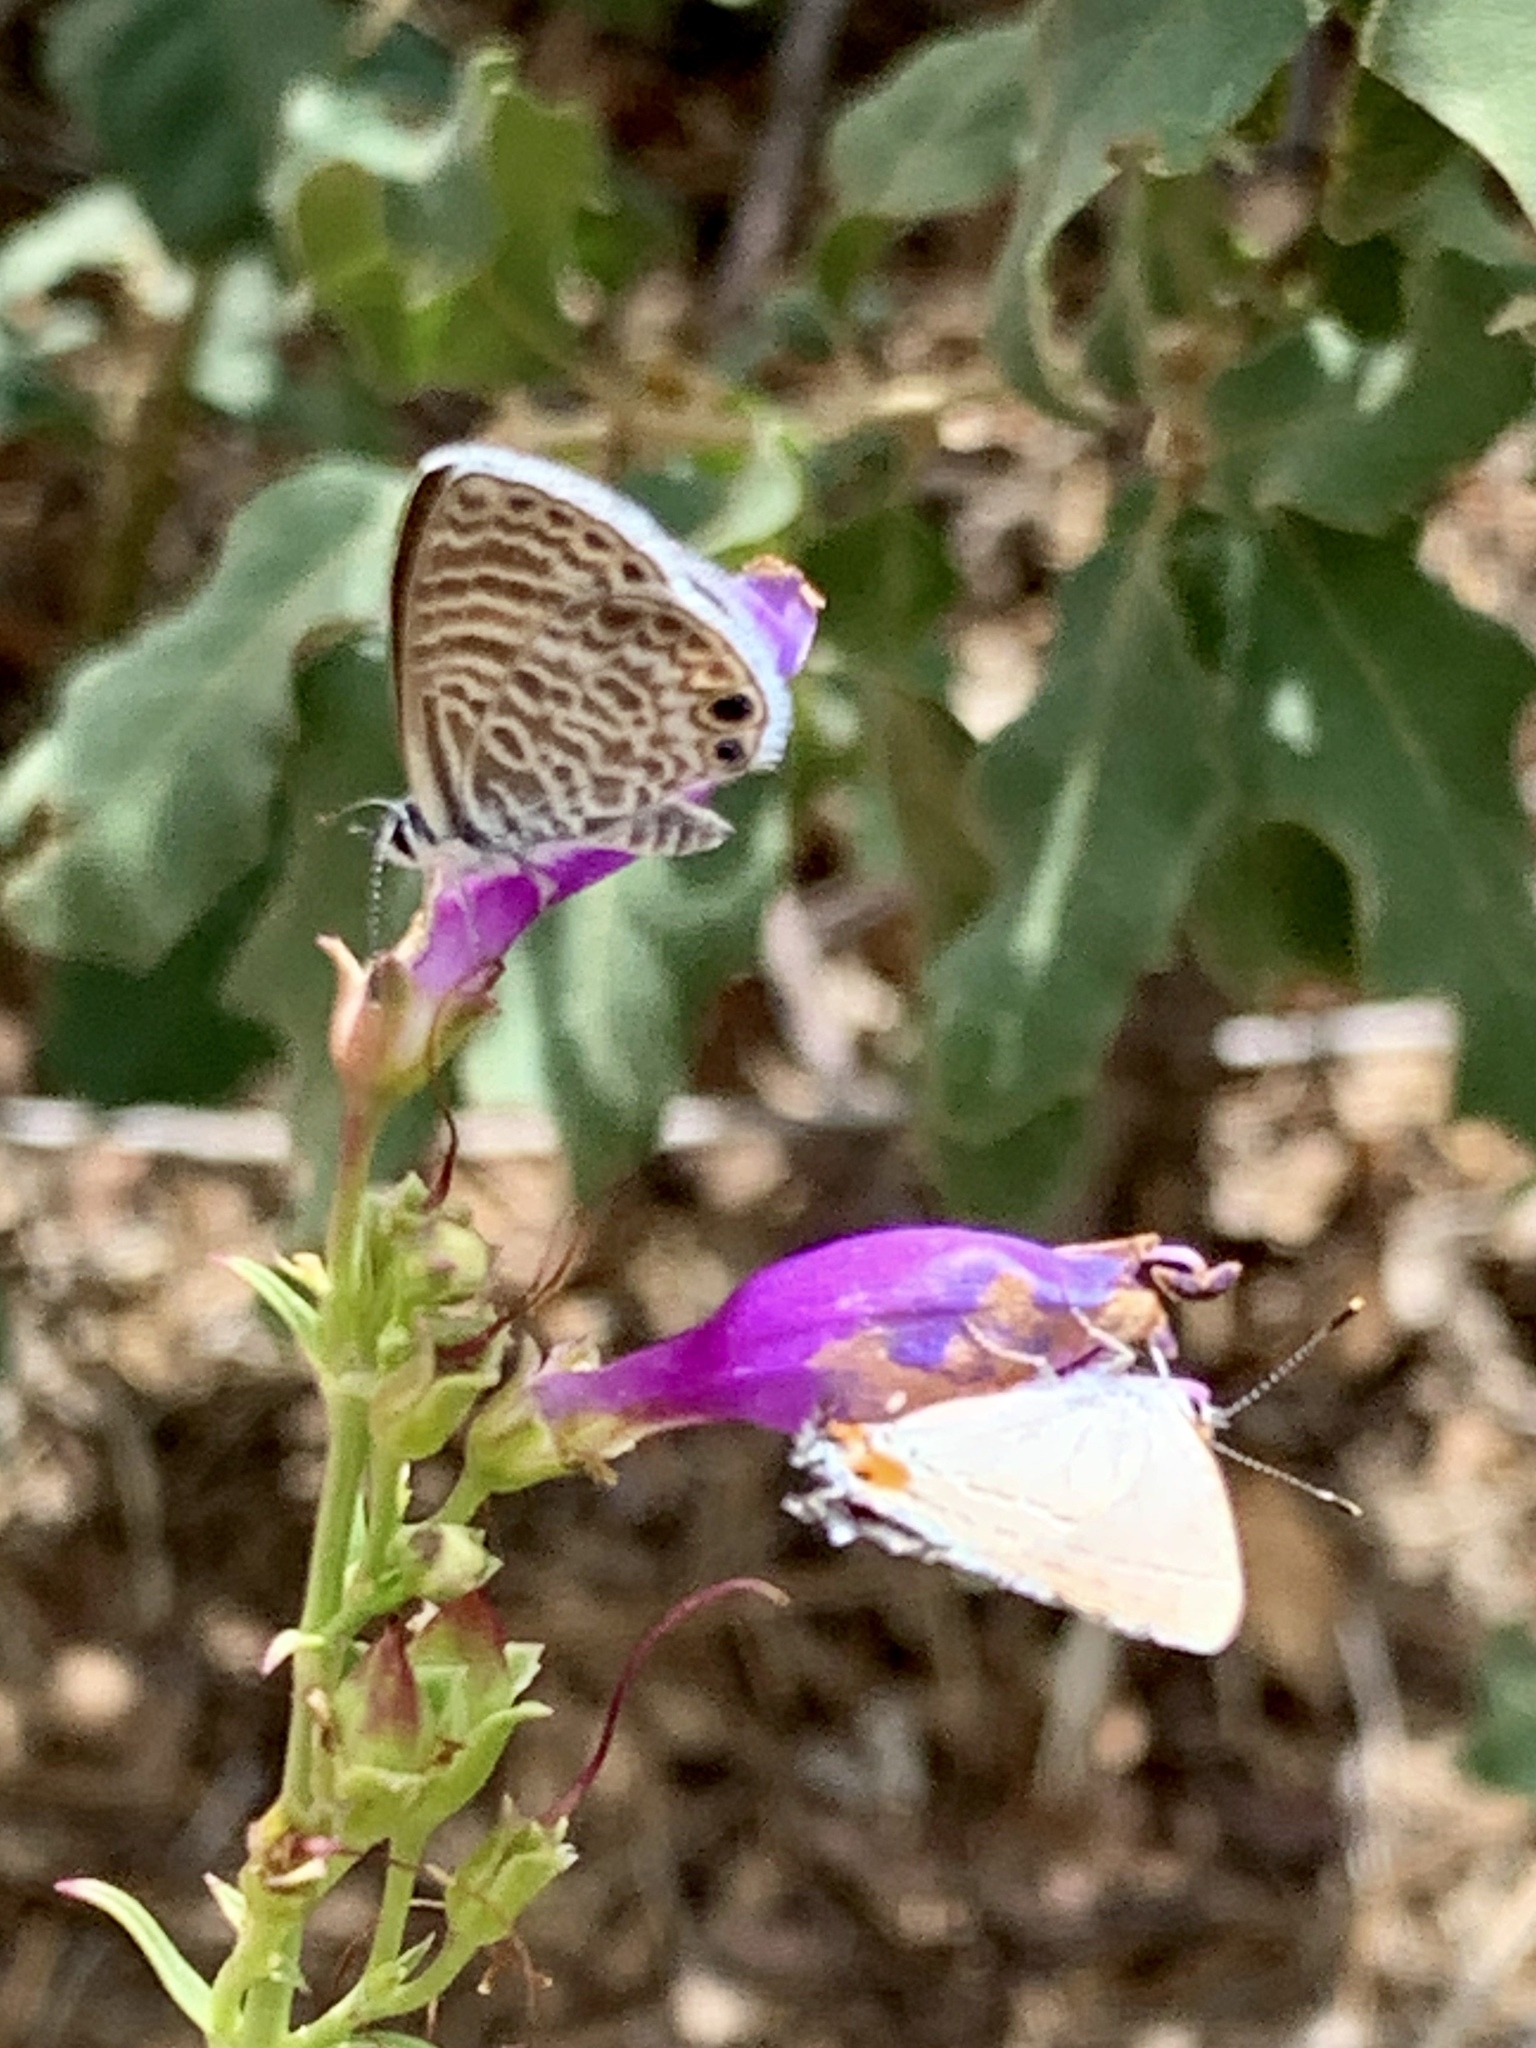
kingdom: Animalia
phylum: Arthropoda
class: Insecta
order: Lepidoptera
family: Lycaenidae
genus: Strymon
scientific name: Strymon melinus
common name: Gray hairstreak
